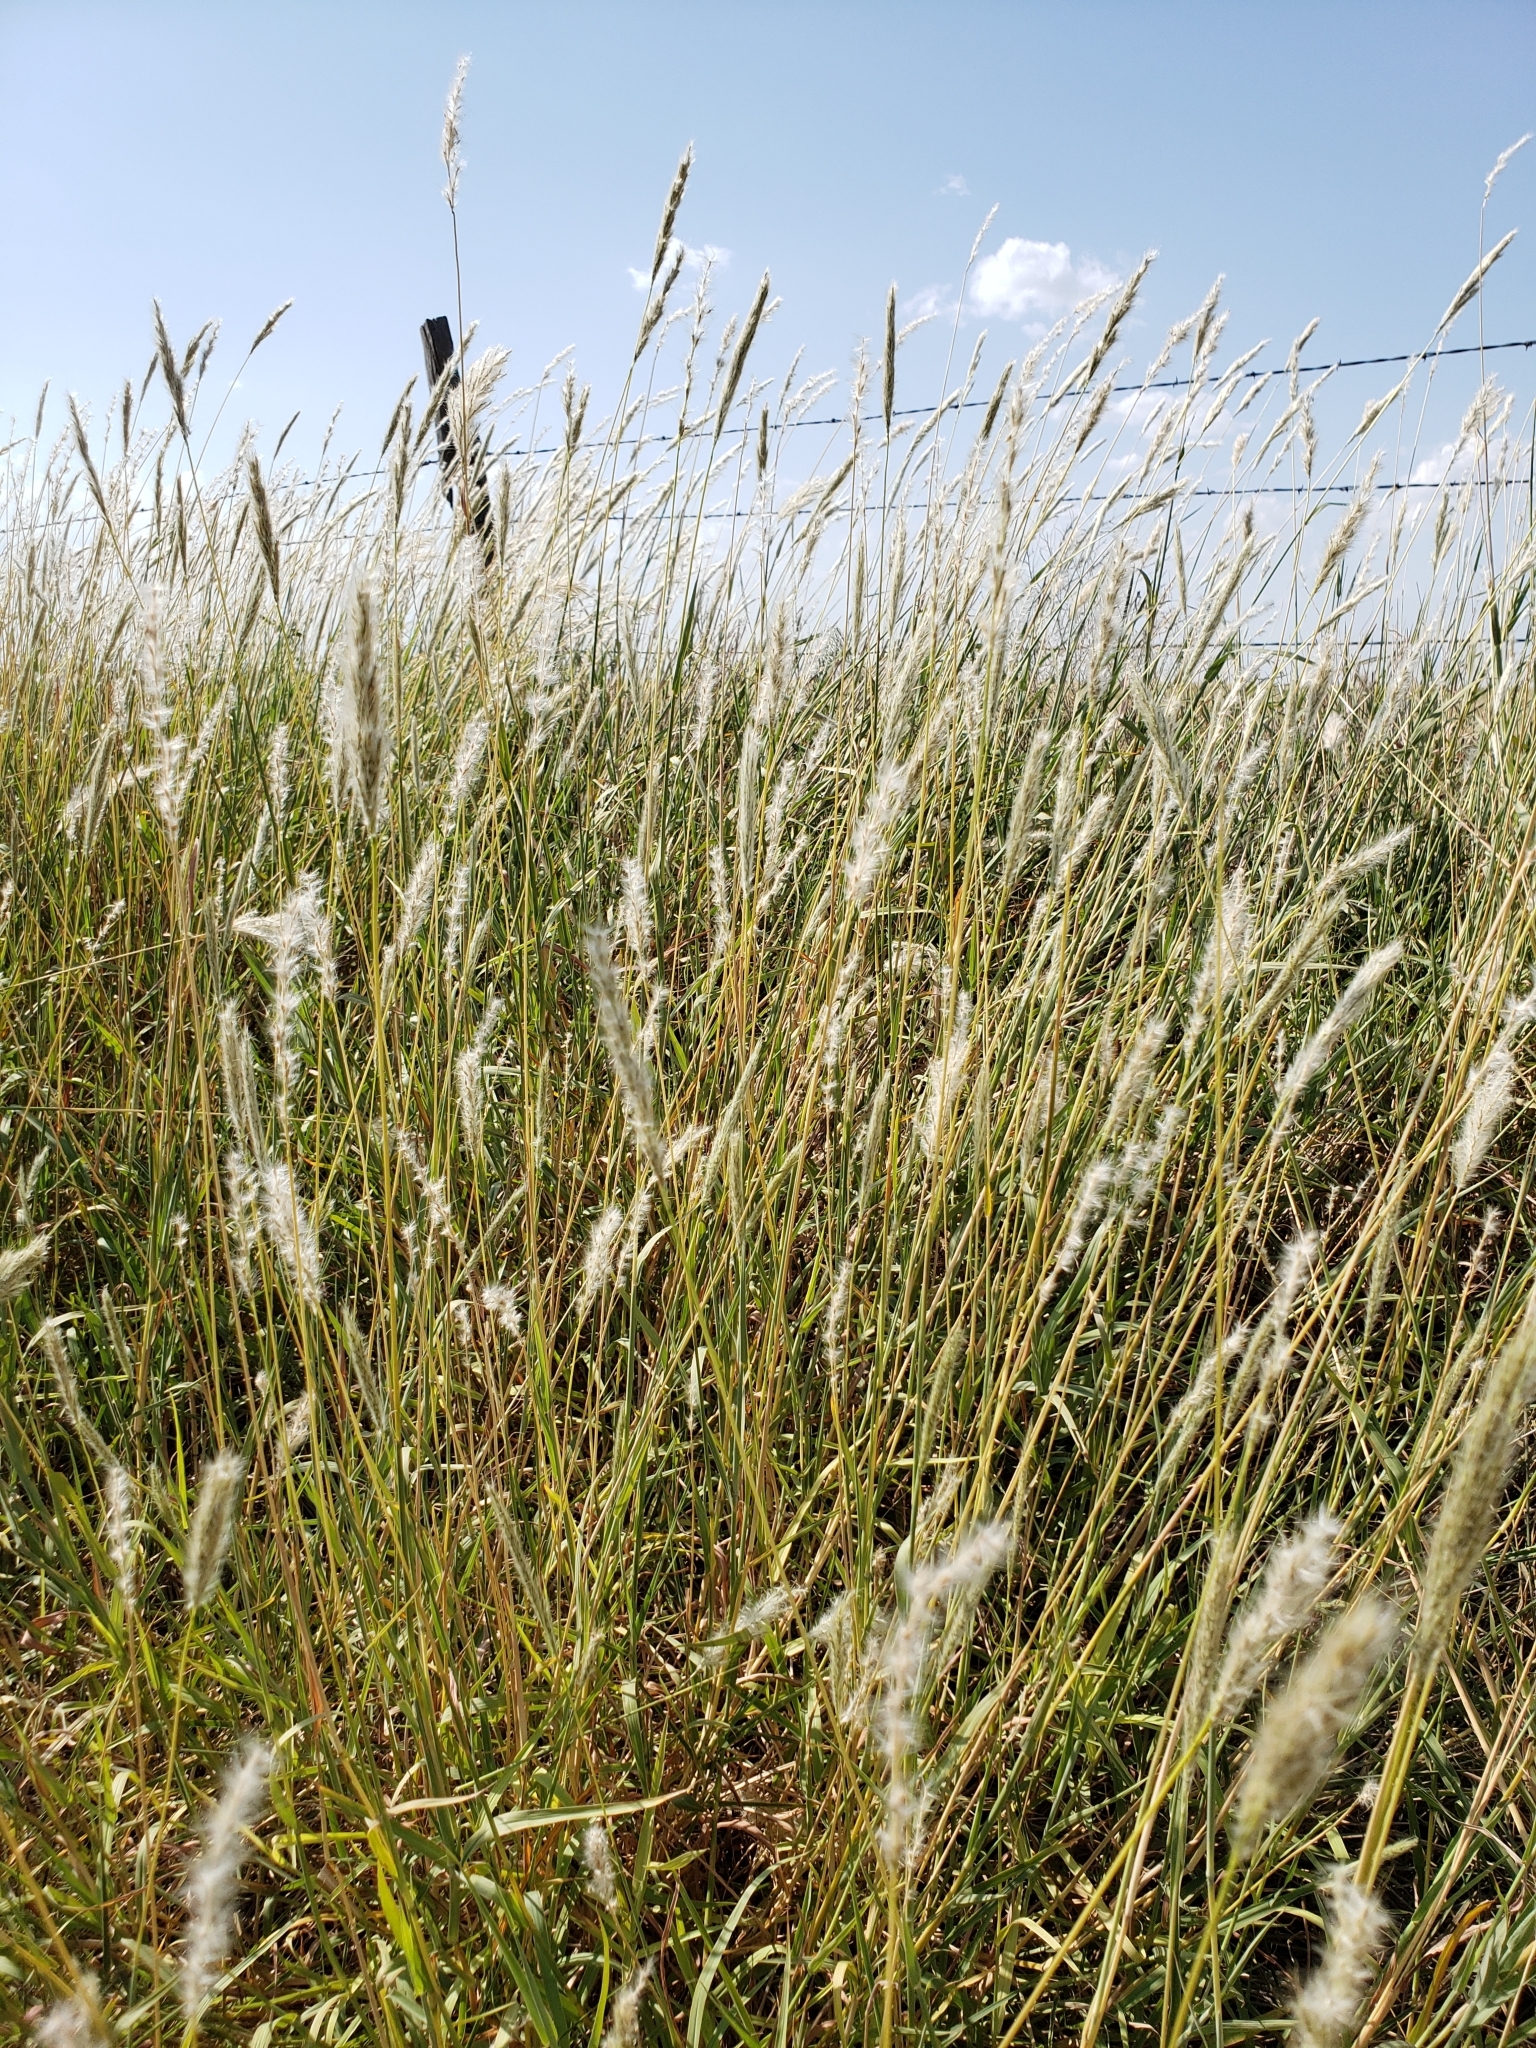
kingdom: Plantae
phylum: Tracheophyta
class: Liliopsida
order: Poales
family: Poaceae
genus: Bothriochloa
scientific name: Bothriochloa torreyana
